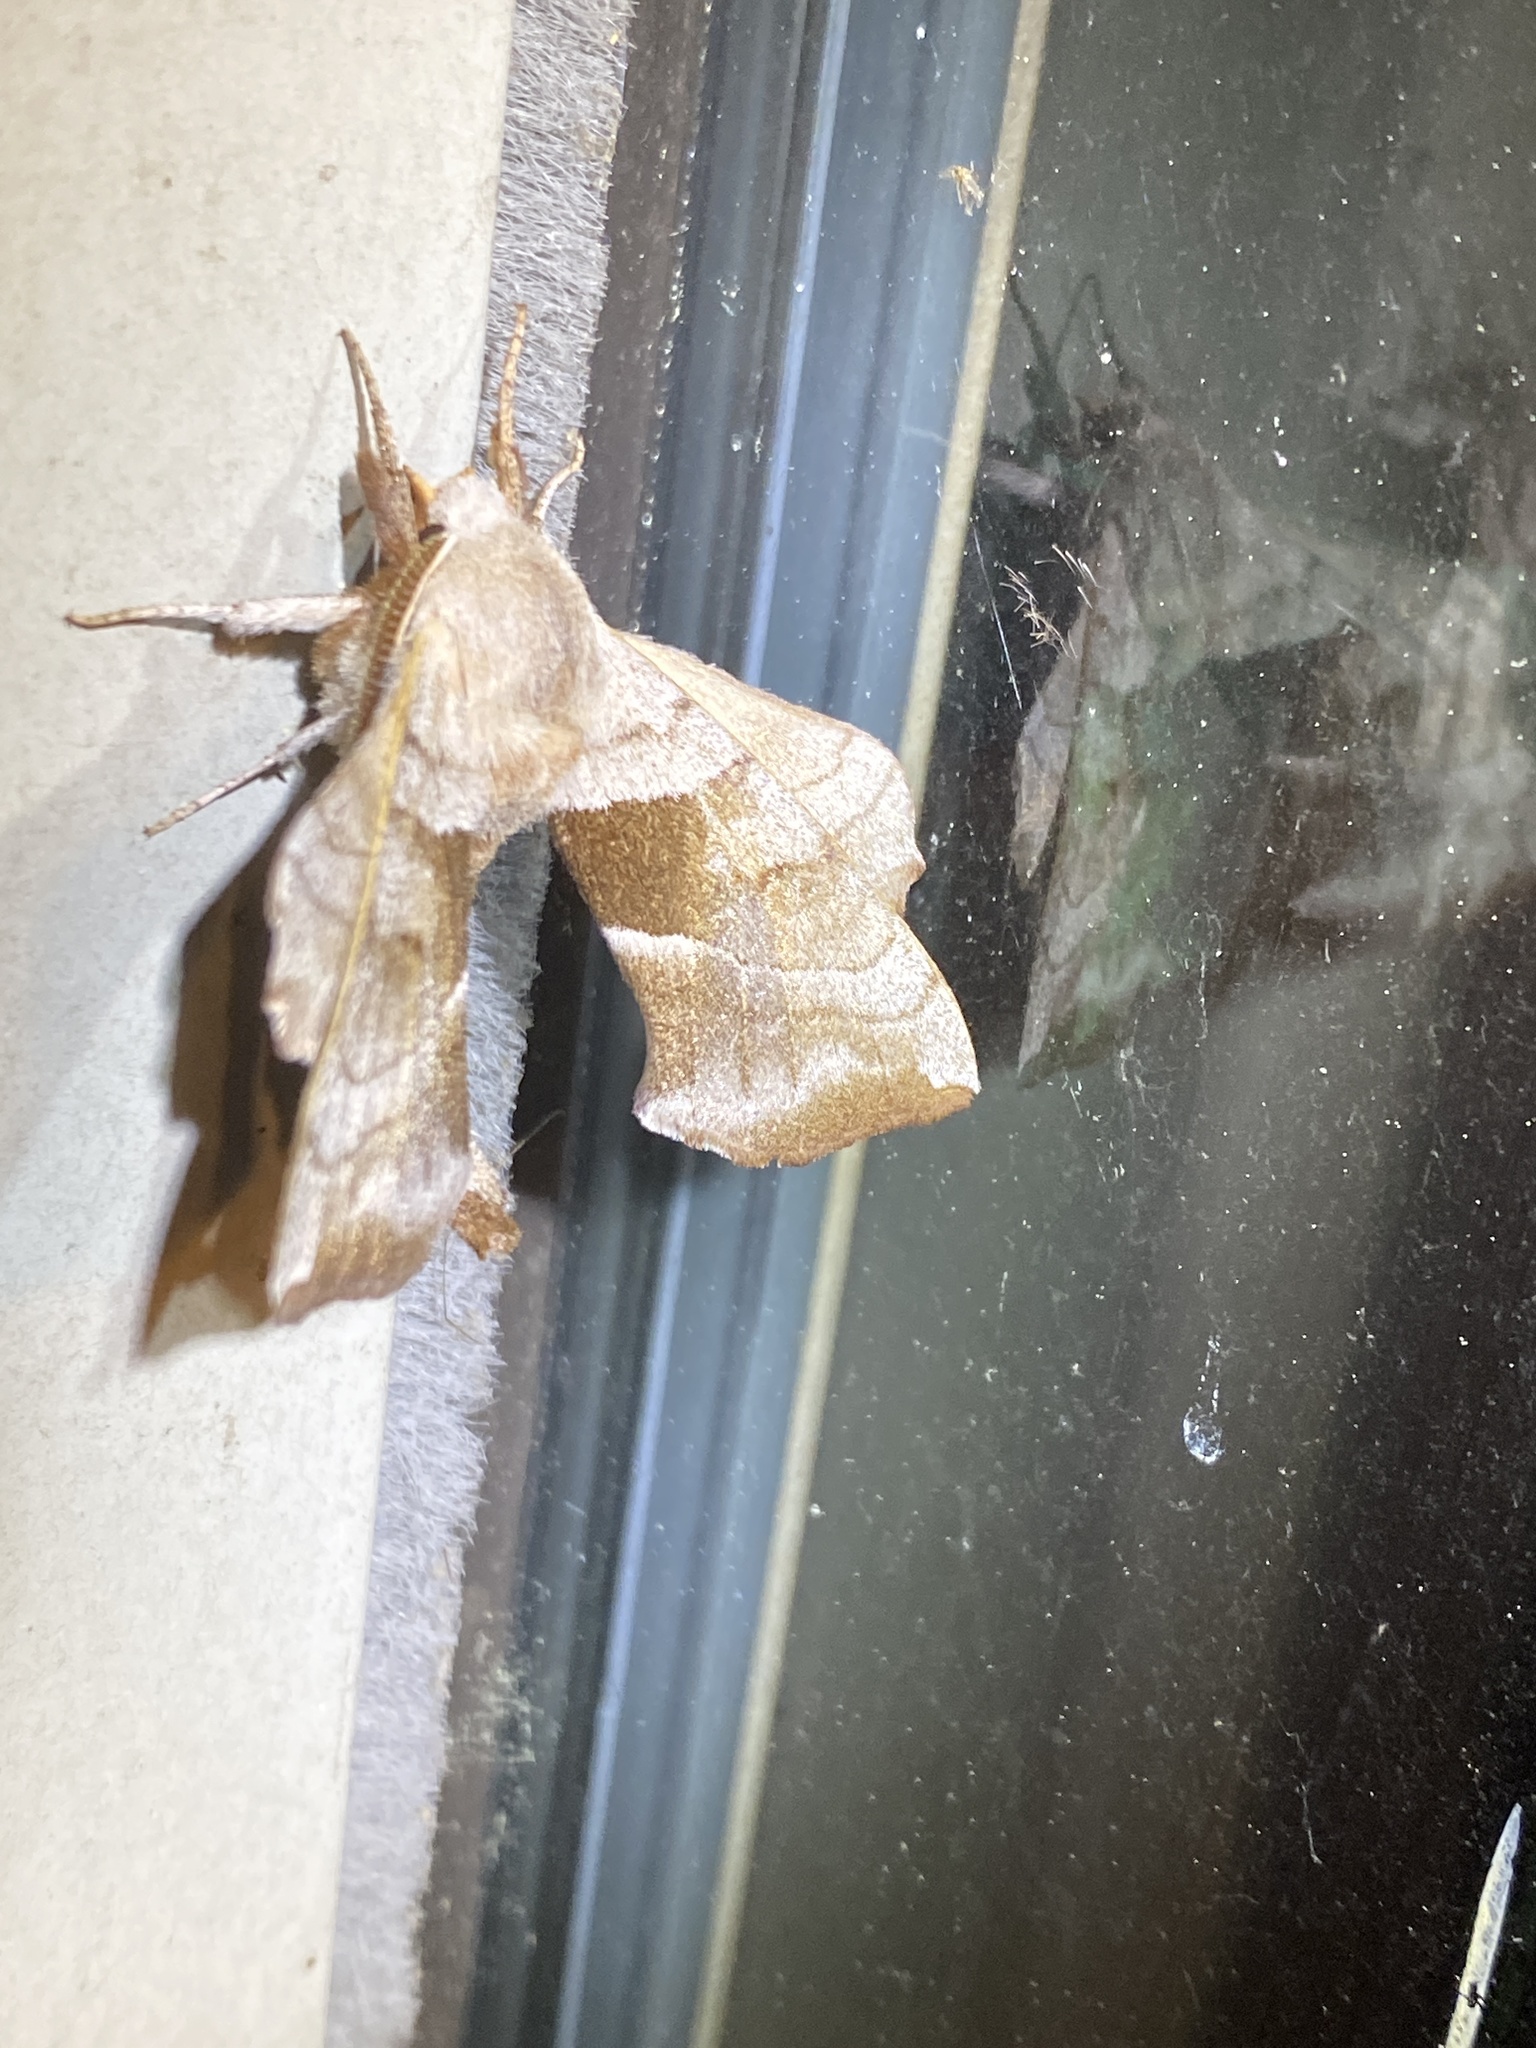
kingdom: Animalia
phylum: Arthropoda
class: Insecta
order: Lepidoptera
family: Sphingidae
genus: Amorpha
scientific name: Amorpha juglandis
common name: Walnut sphinx
